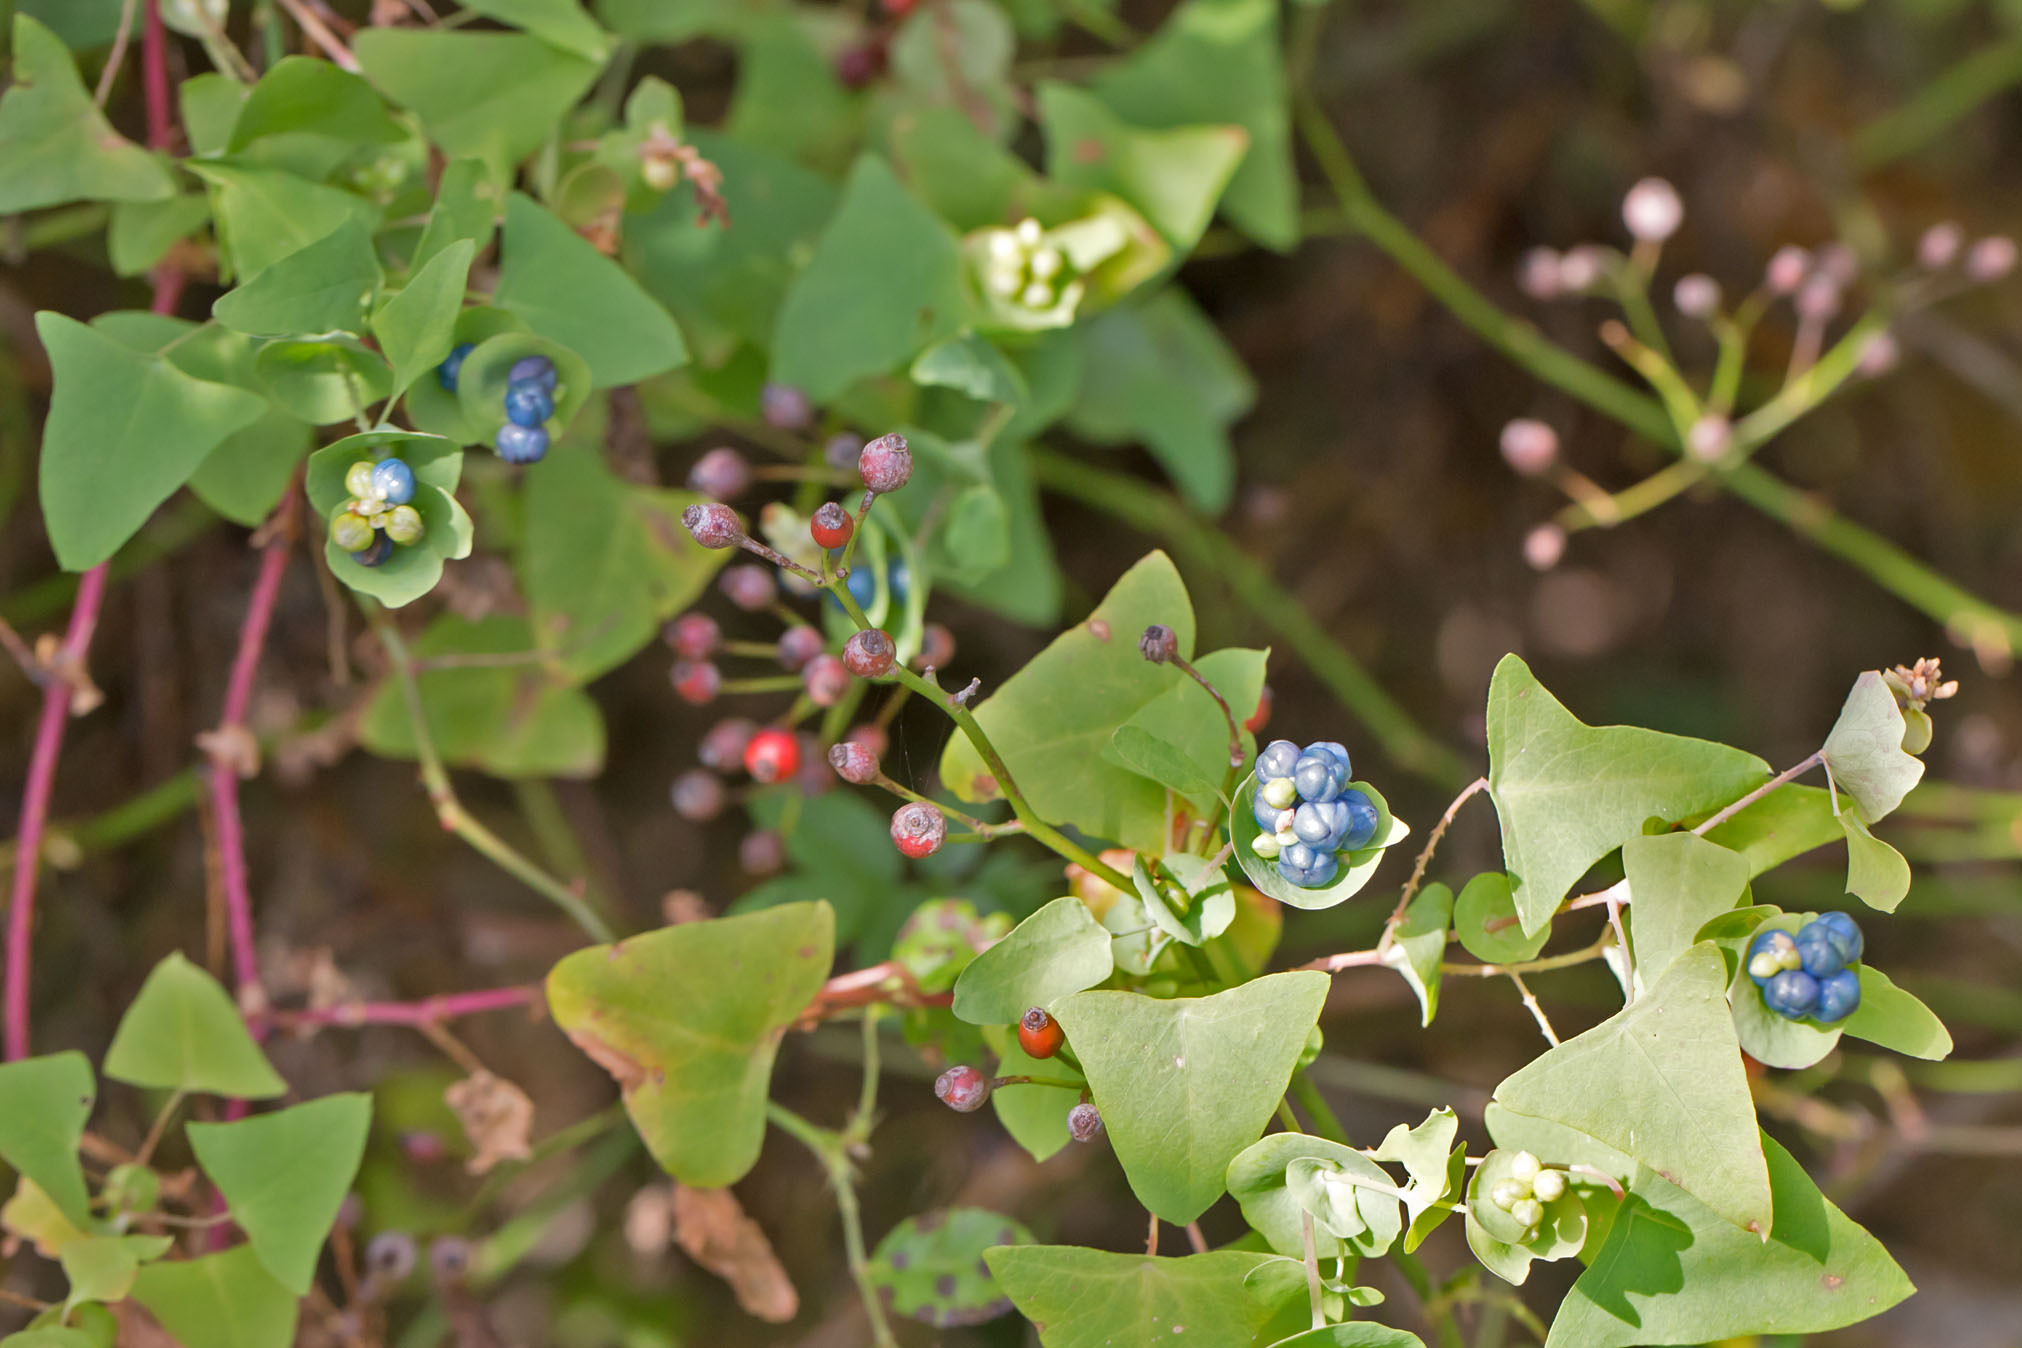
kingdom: Plantae
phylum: Tracheophyta
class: Magnoliopsida
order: Caryophyllales
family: Polygonaceae
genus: Persicaria
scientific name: Persicaria perfoliata
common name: Asiatic tearthumb
